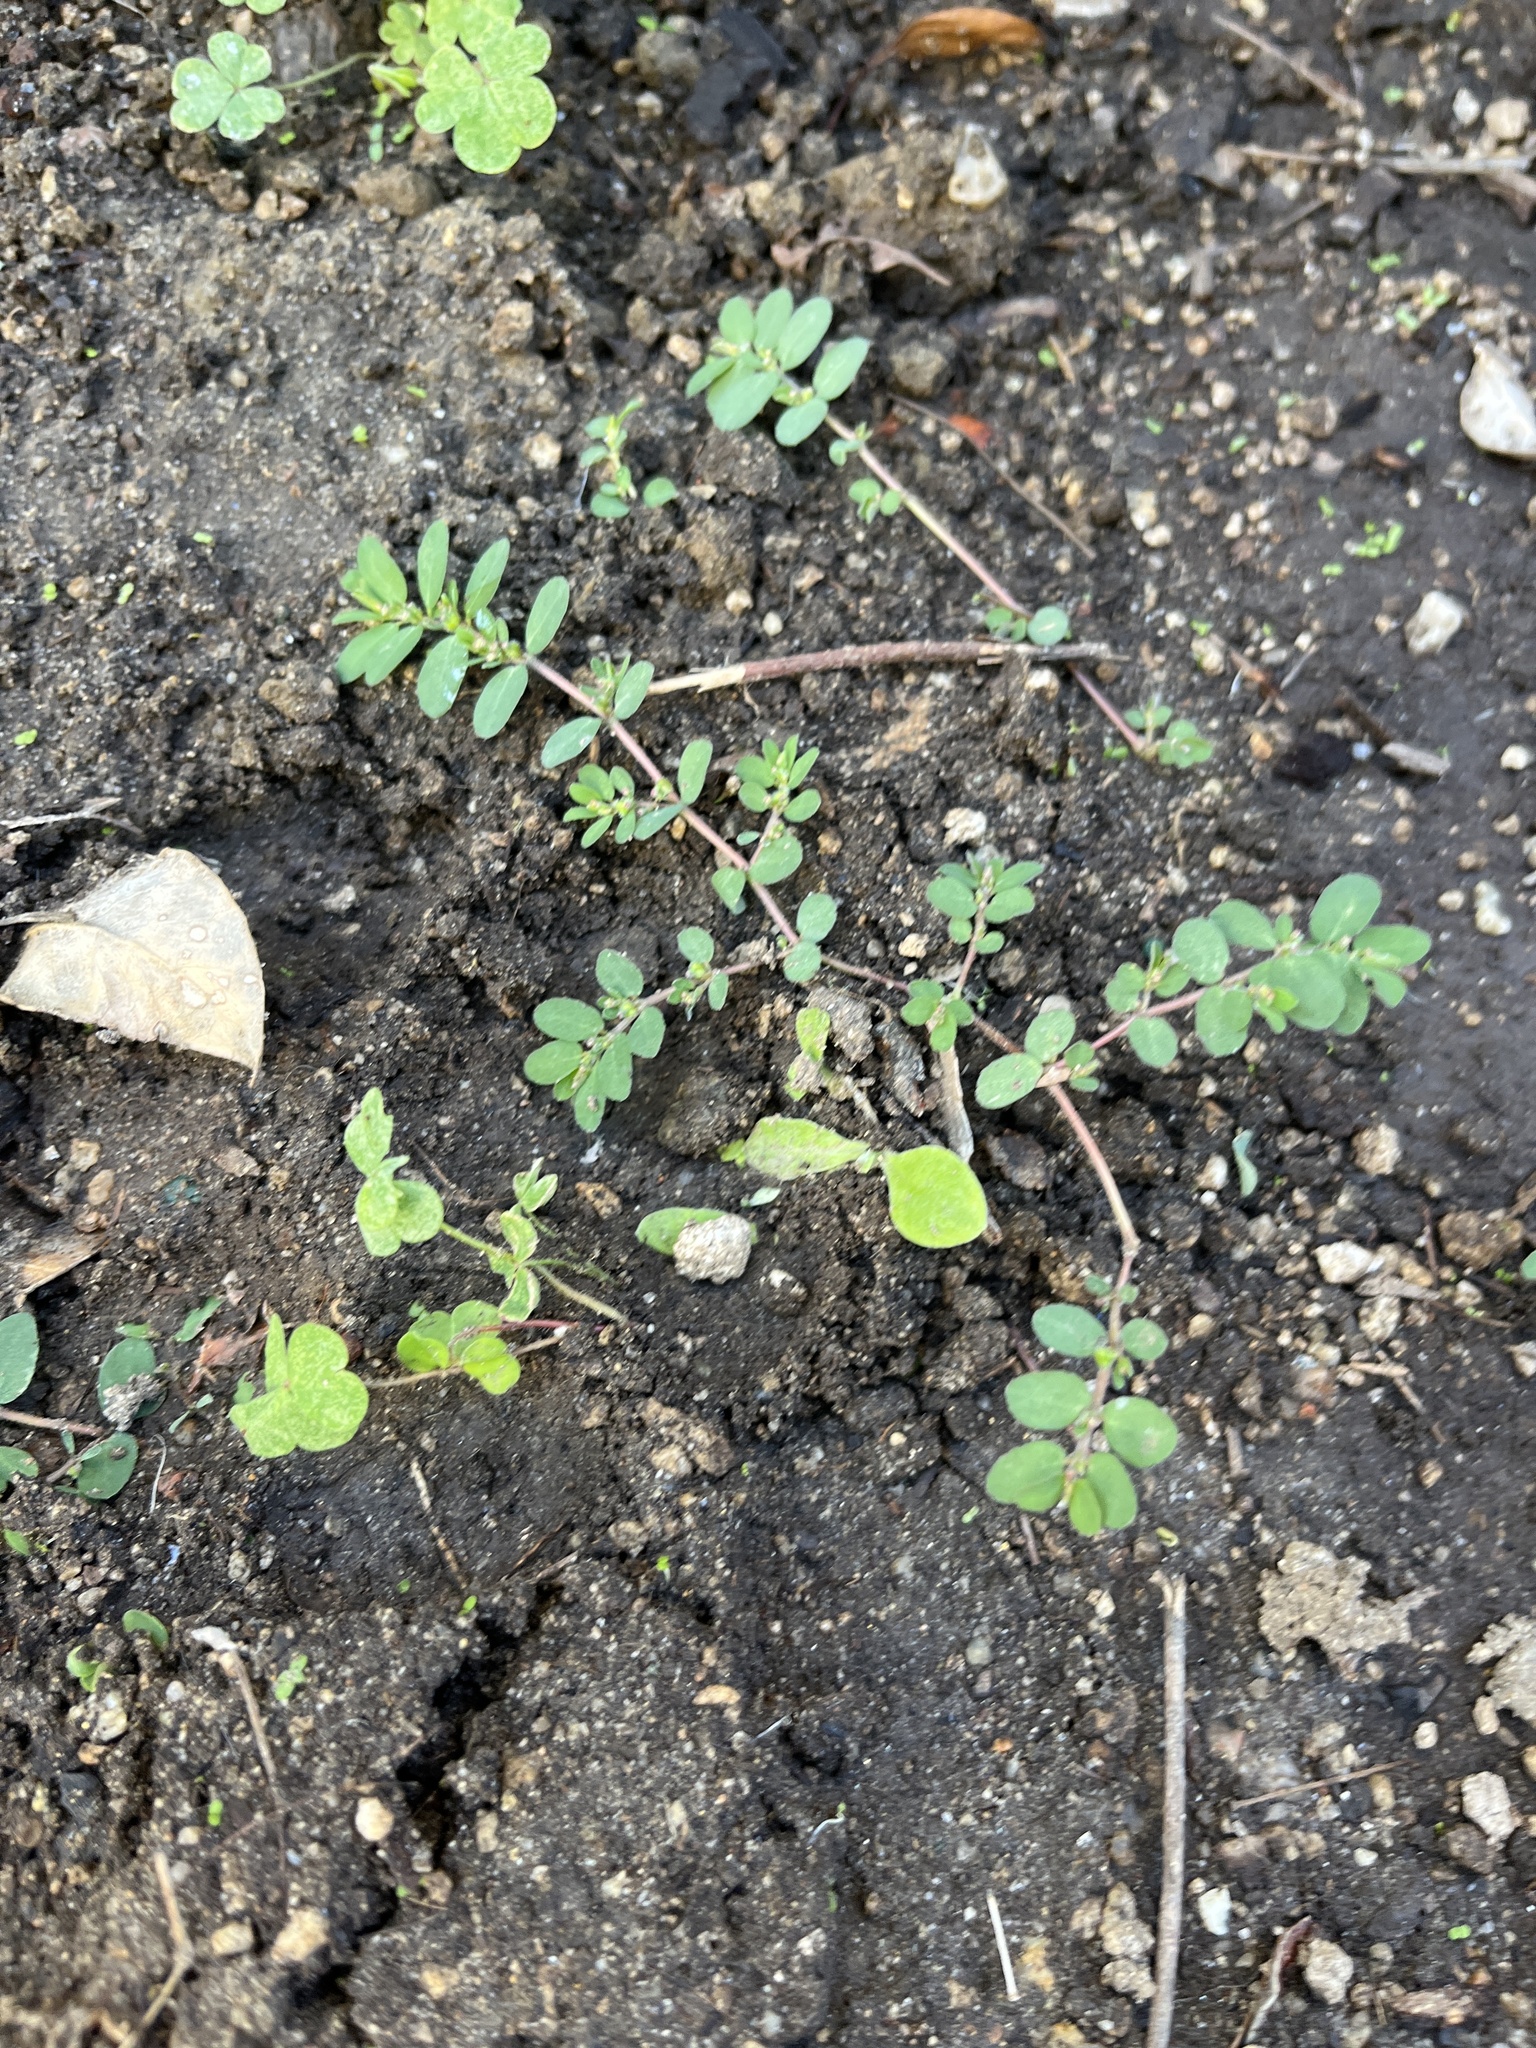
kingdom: Plantae
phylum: Tracheophyta
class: Magnoliopsida
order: Malpighiales
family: Euphorbiaceae
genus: Euphorbia
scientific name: Euphorbia prostrata
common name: Prostrate sandmat
